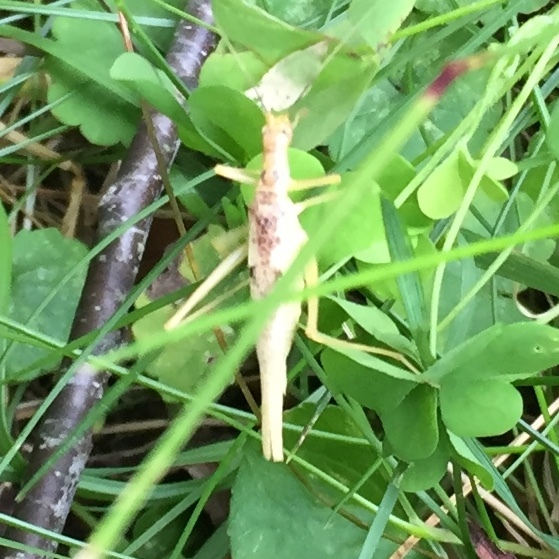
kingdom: Animalia
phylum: Arthropoda
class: Insecta
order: Orthoptera
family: Gryllidae
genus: Neoxabea
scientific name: Neoxabea bipunctata
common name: Two-spotted tree cricket
